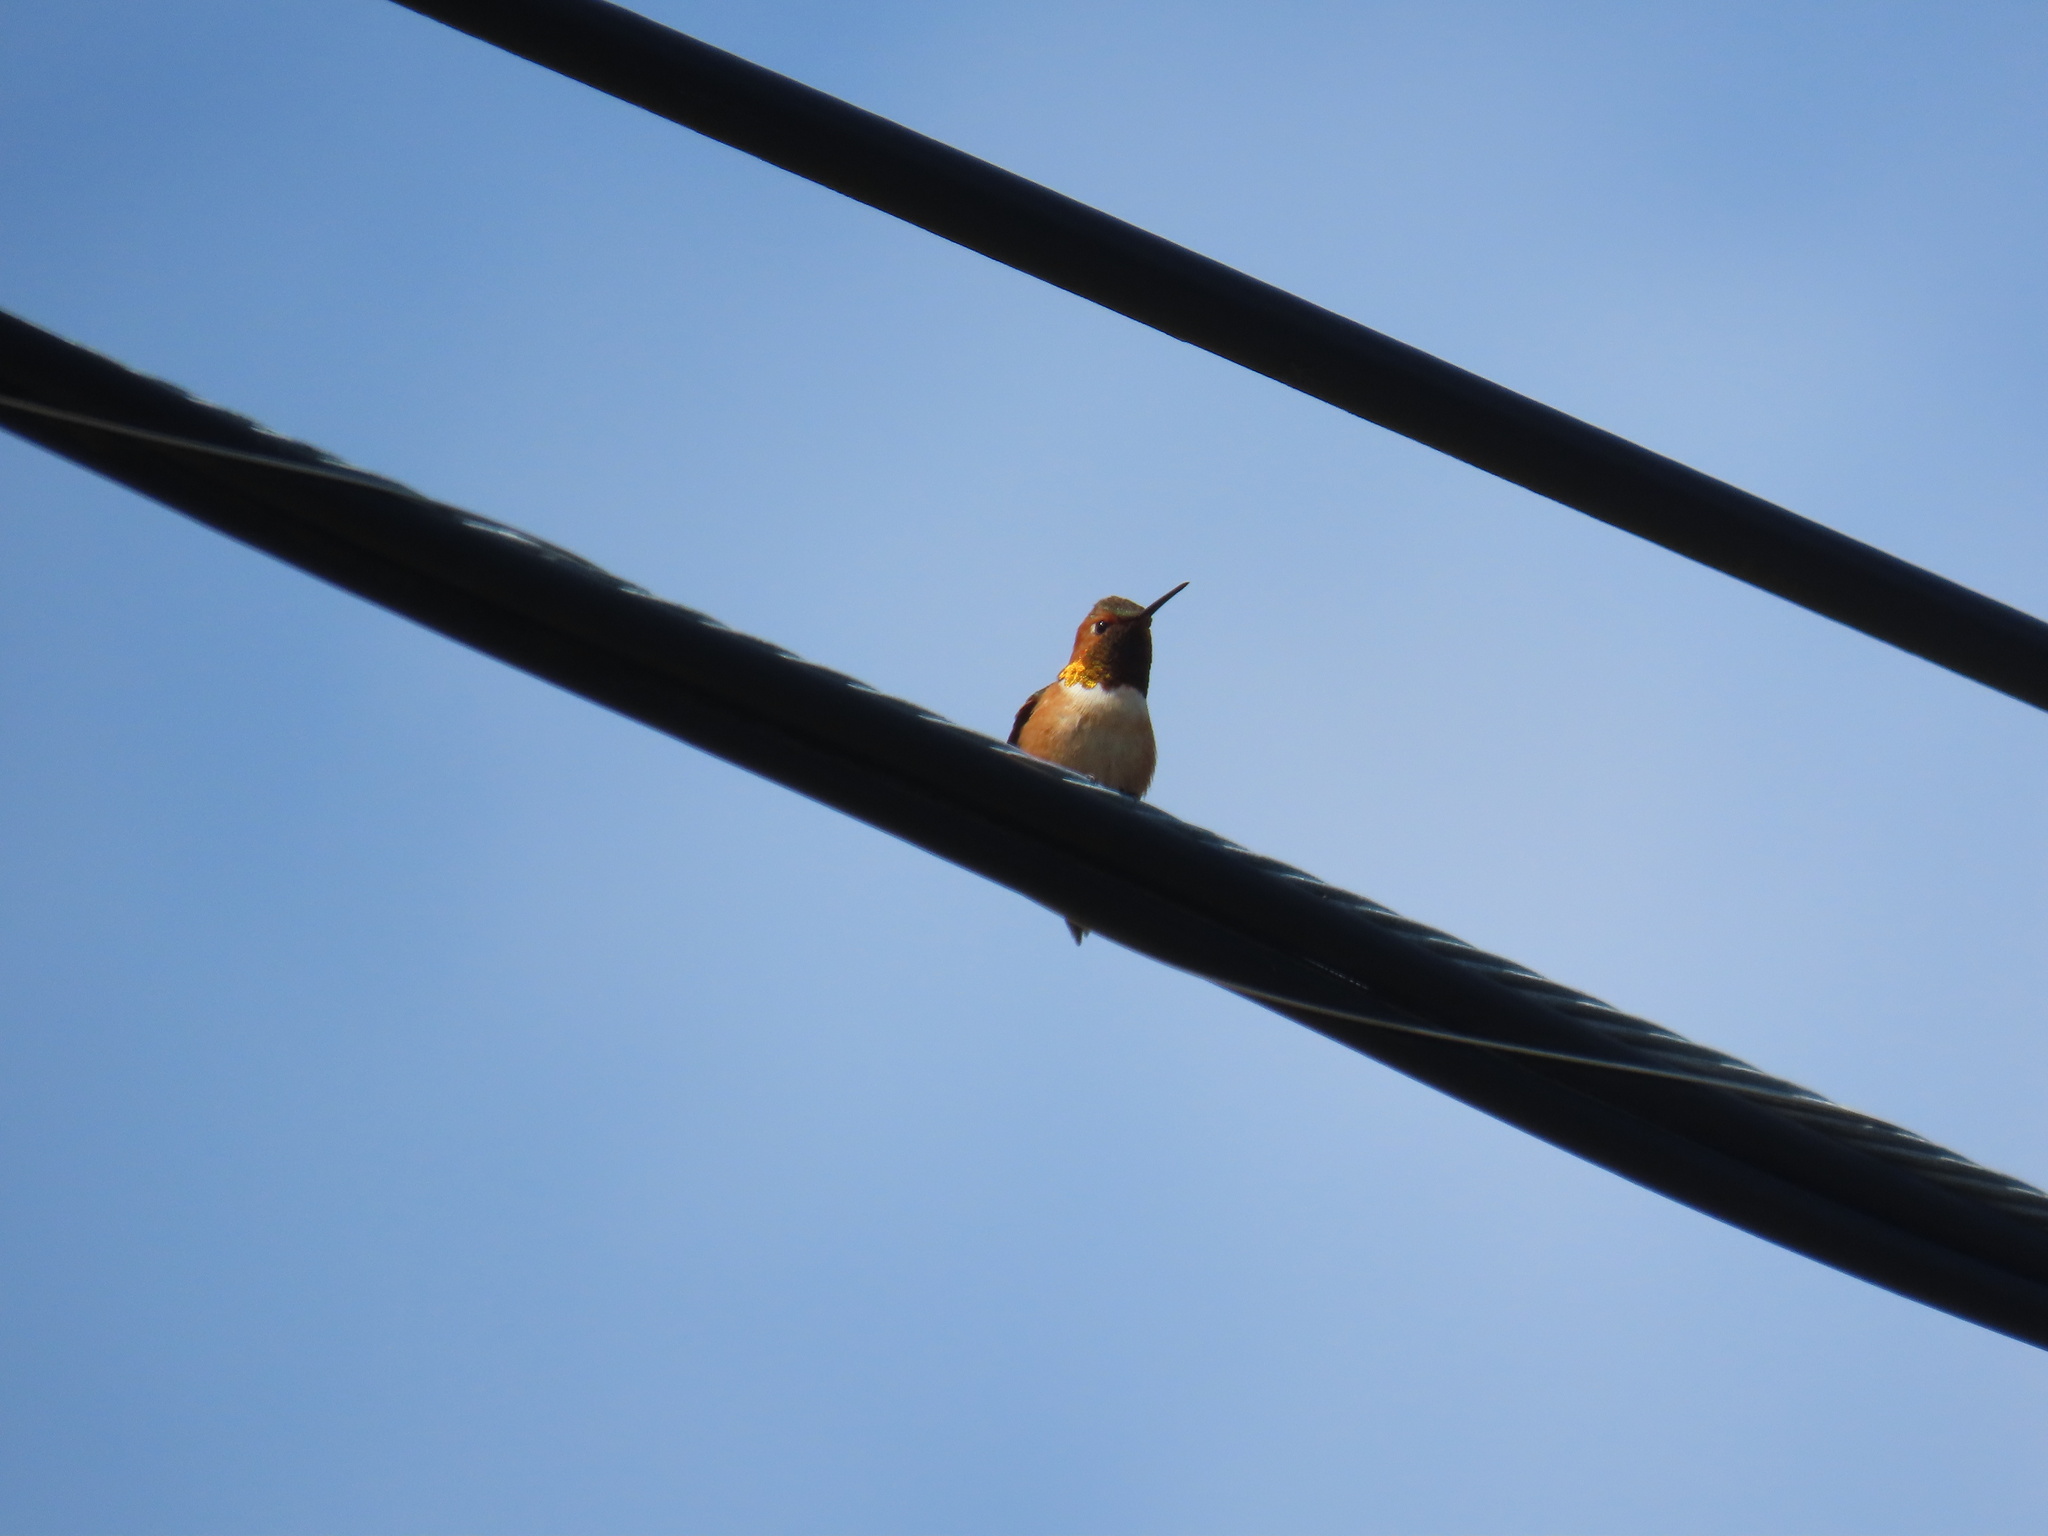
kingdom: Animalia
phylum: Chordata
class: Aves
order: Apodiformes
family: Trochilidae
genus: Selasphorus
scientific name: Selasphorus rufus
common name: Rufous hummingbird
